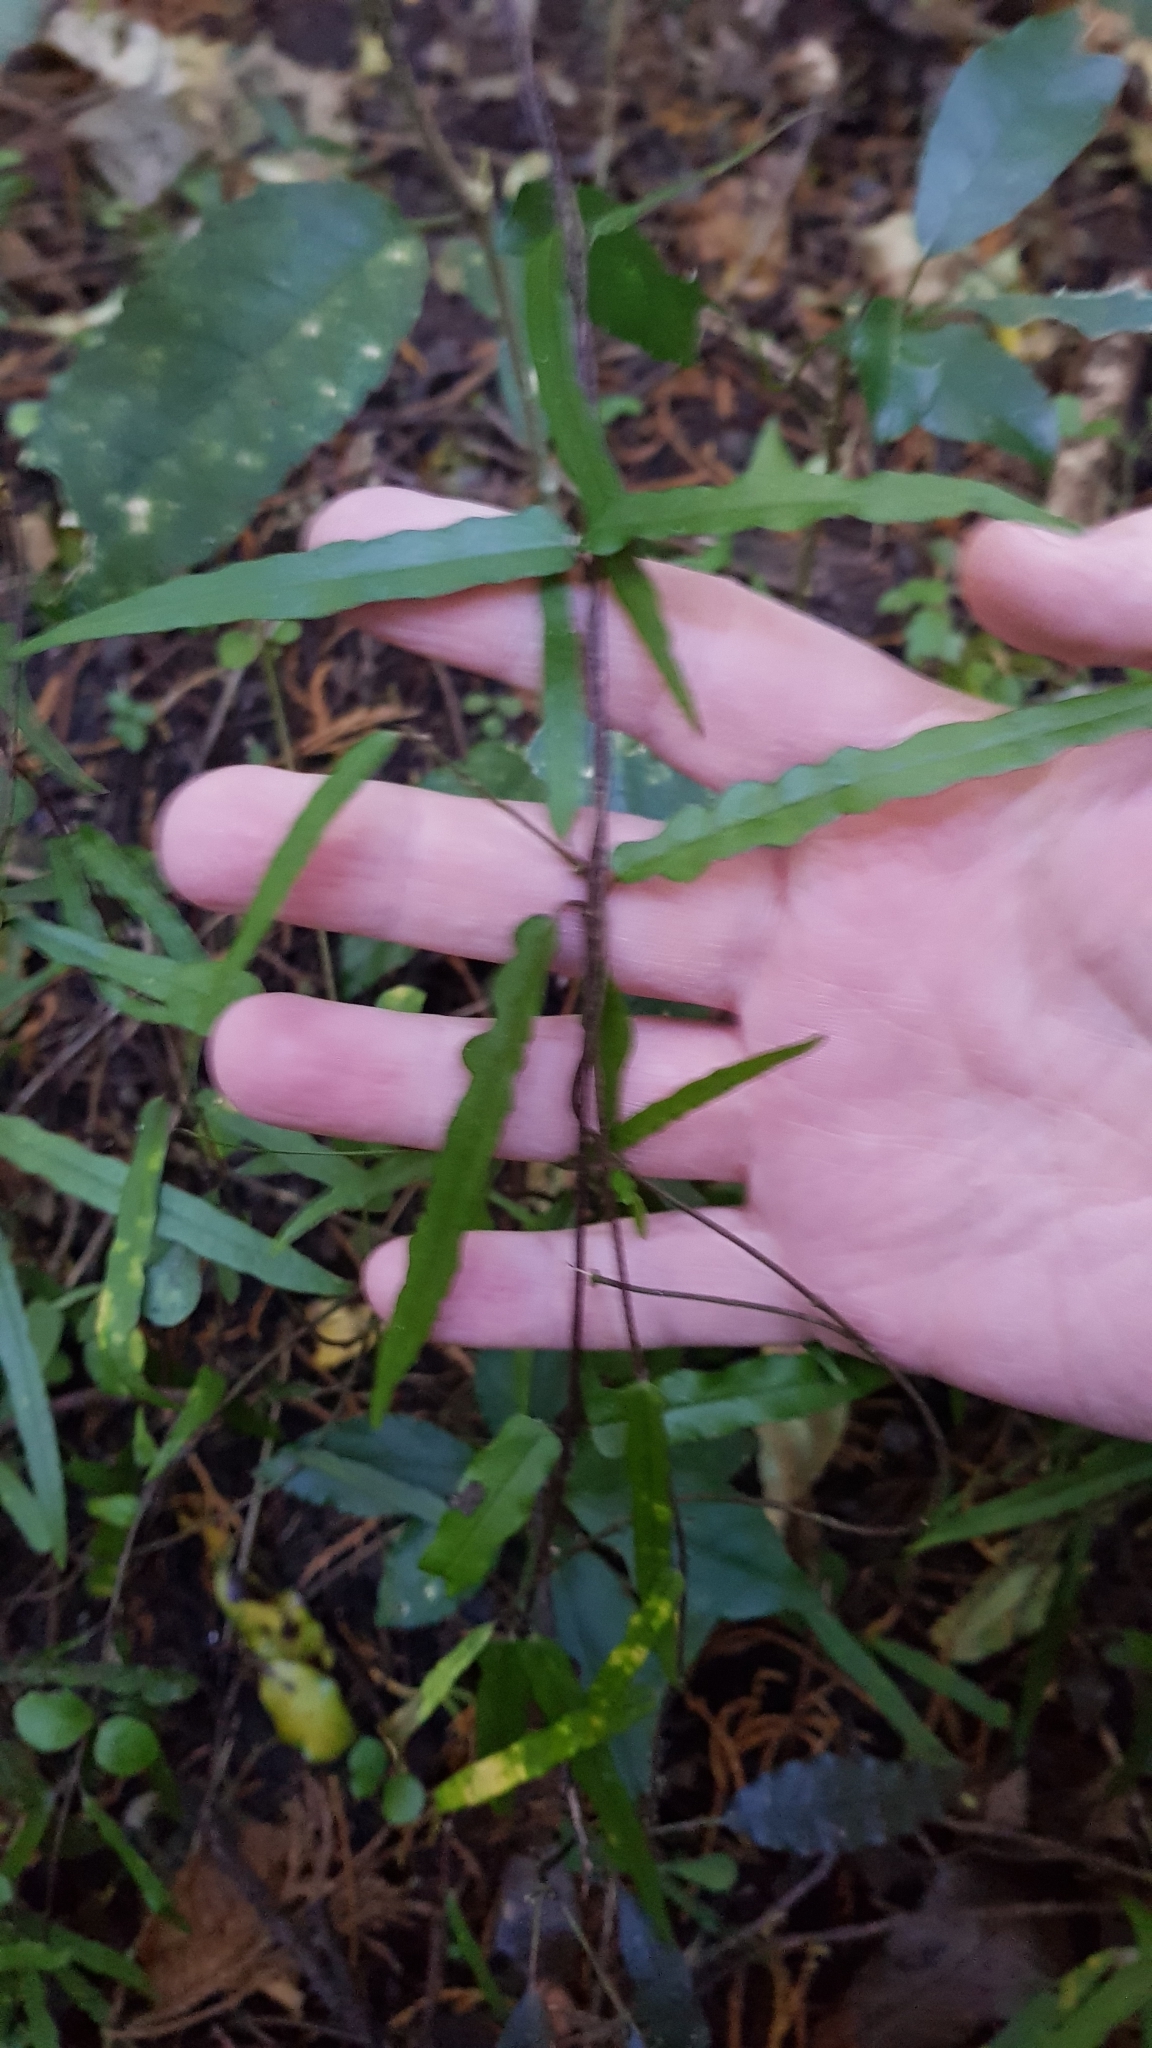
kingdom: Plantae
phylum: Tracheophyta
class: Magnoliopsida
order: Gentianales
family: Apocynaceae
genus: Parsonsia
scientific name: Parsonsia heterophylla
